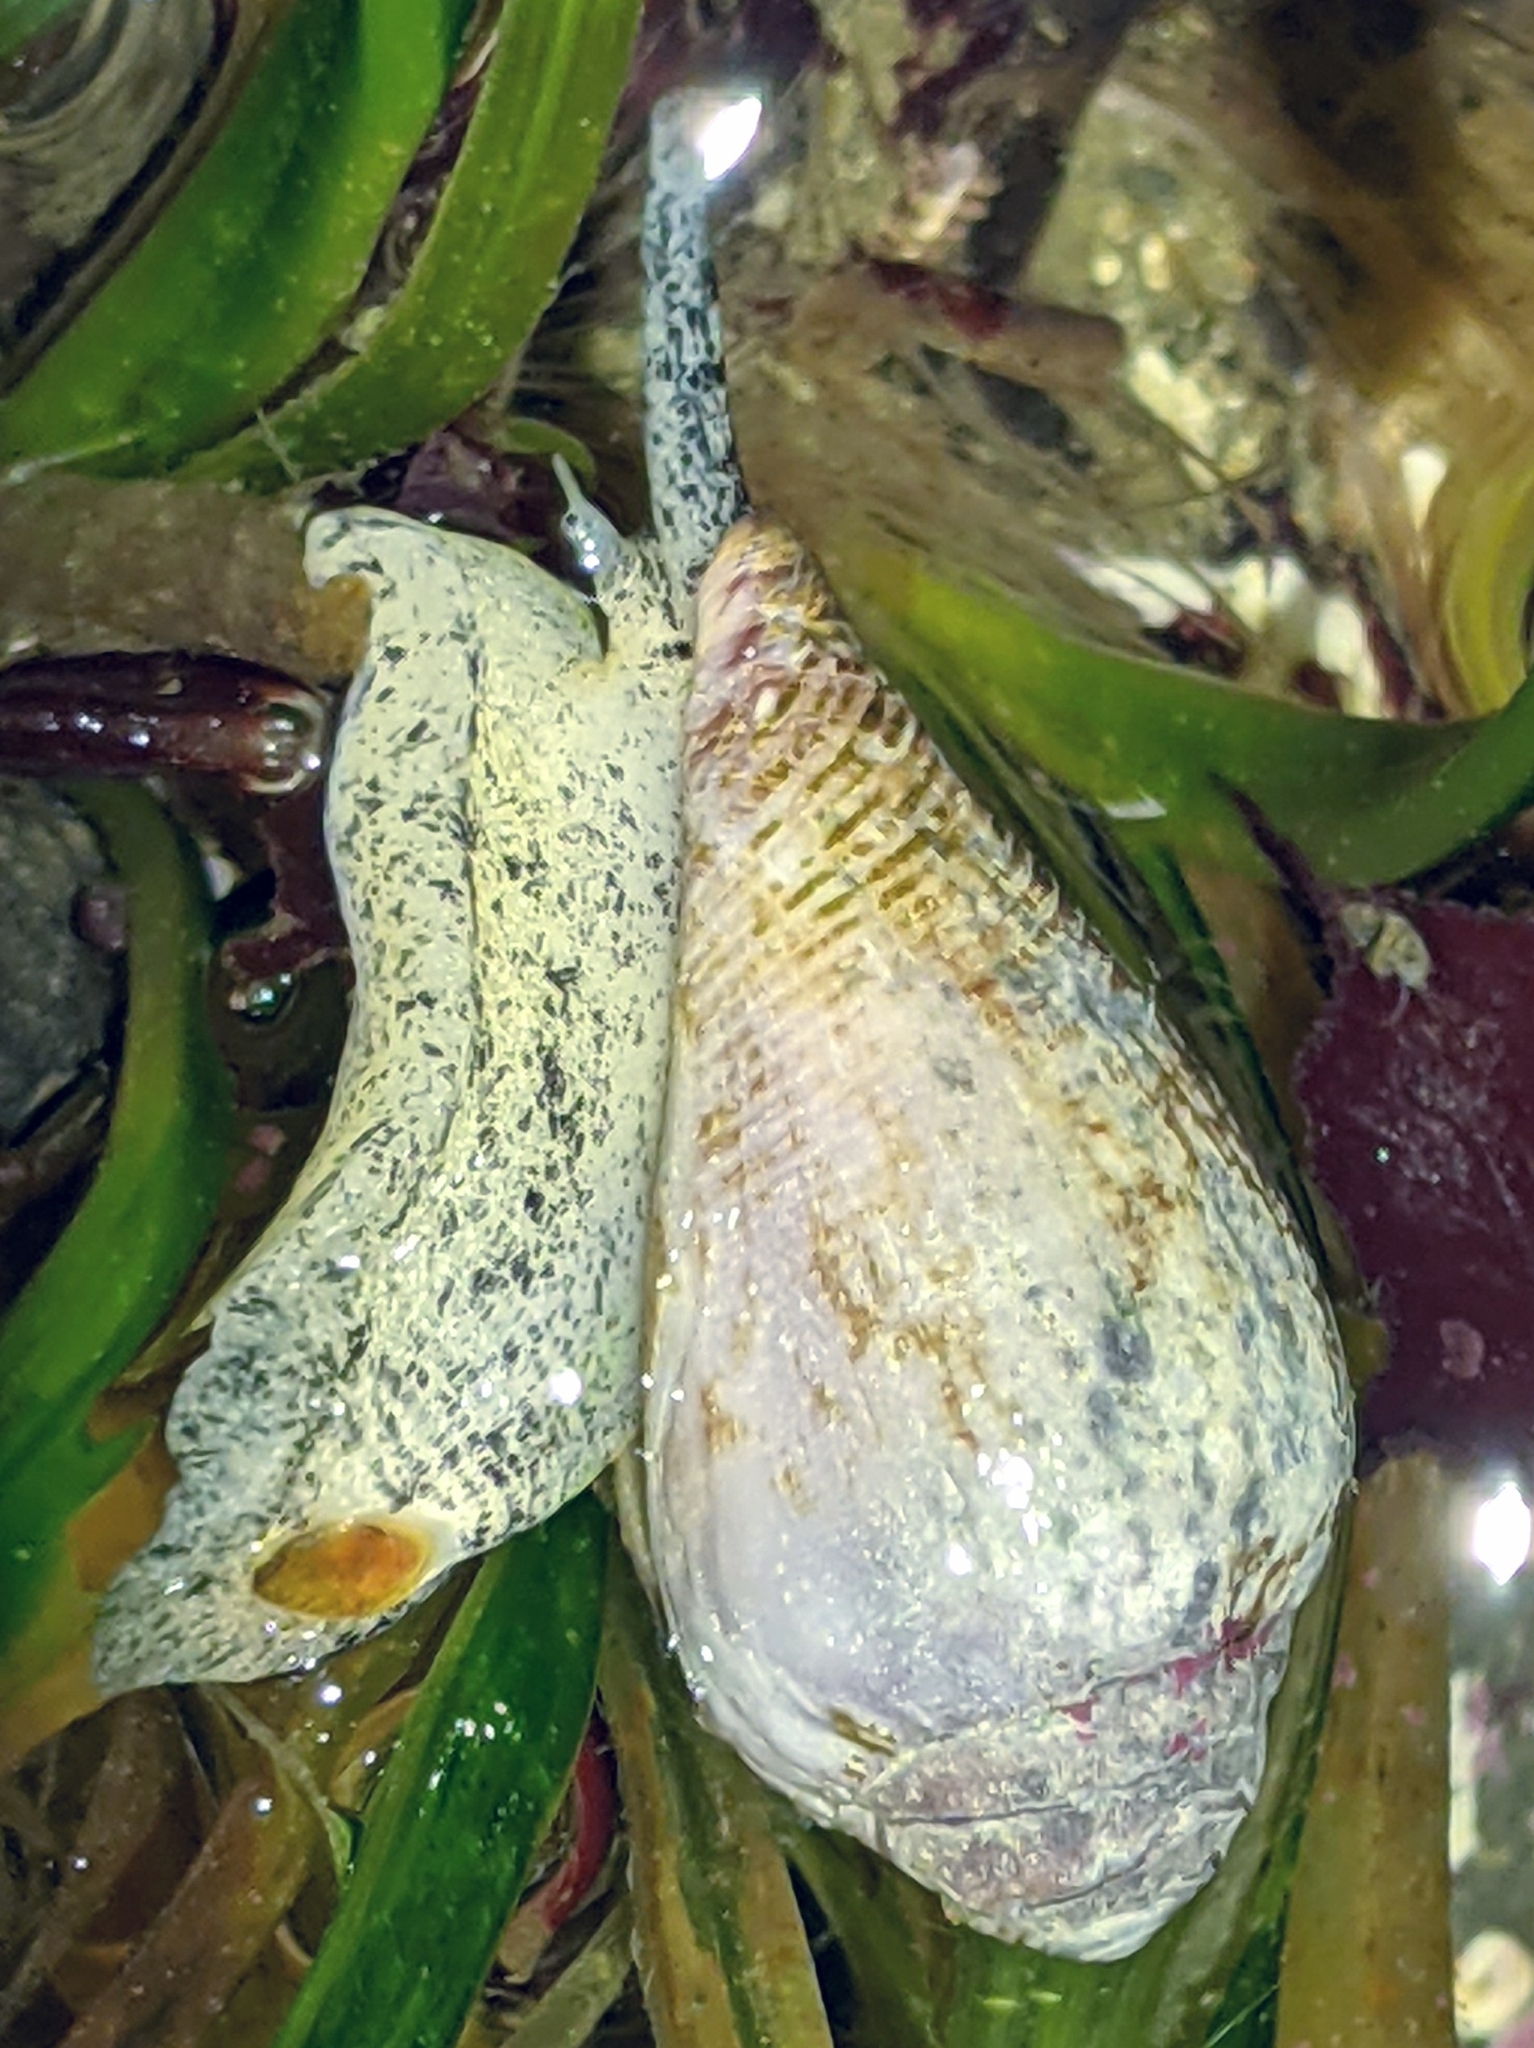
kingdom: Animalia
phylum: Mollusca
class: Gastropoda
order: Neogastropoda
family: Conidae
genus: Californiconus
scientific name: Californiconus californicus
